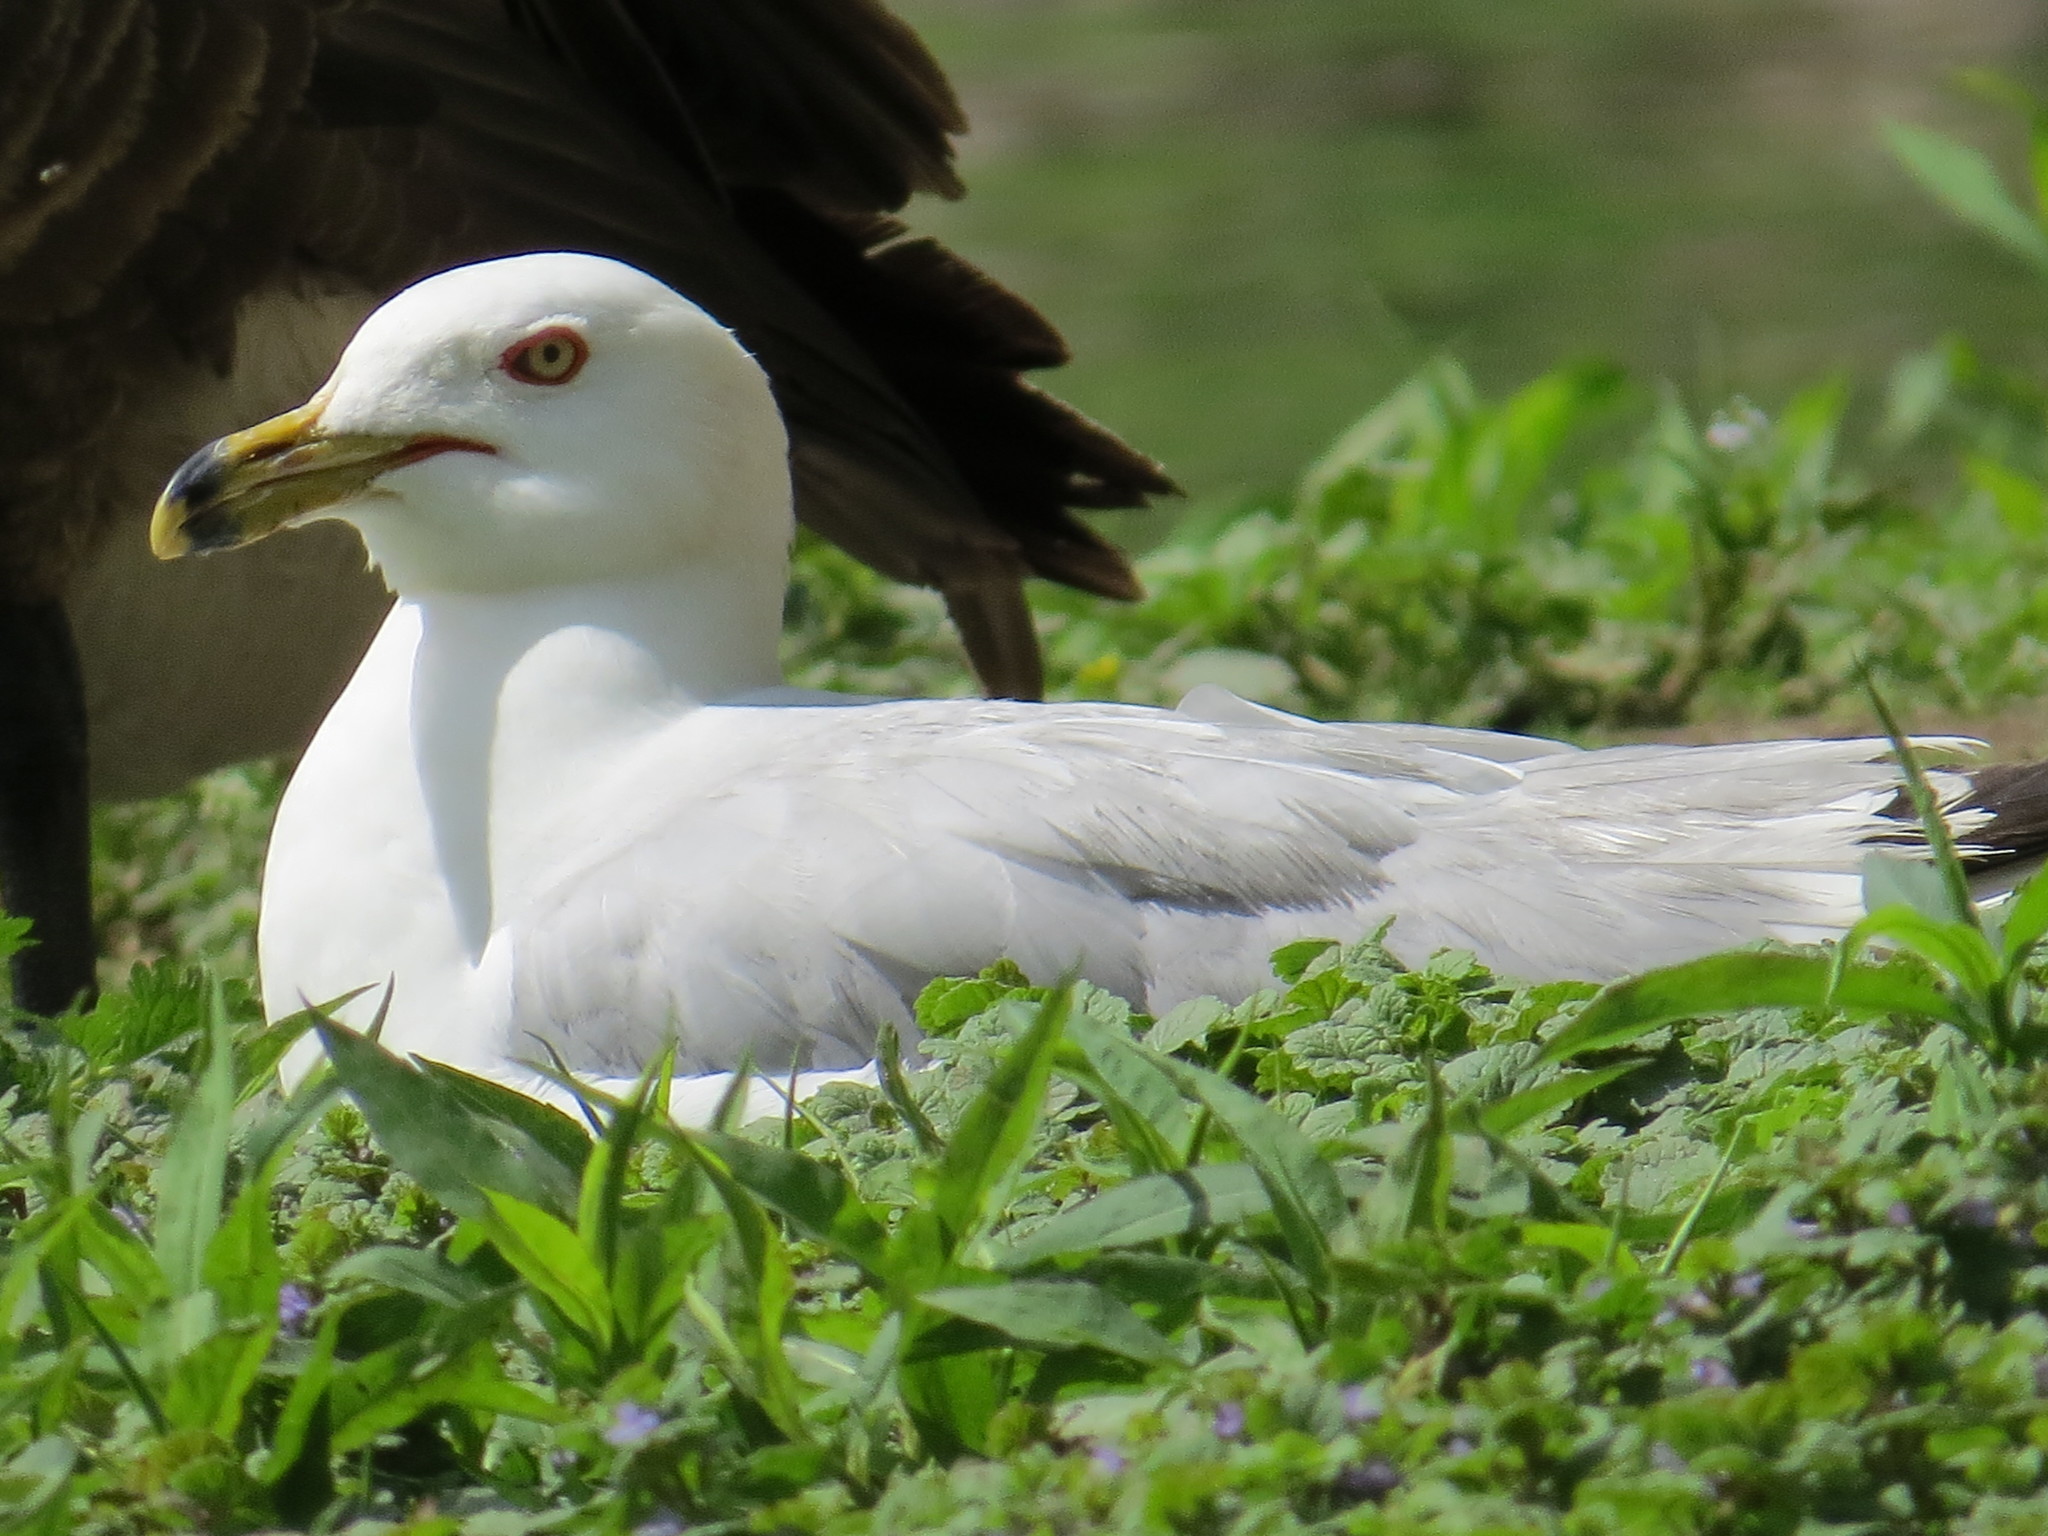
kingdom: Animalia
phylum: Chordata
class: Aves
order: Charadriiformes
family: Laridae
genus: Larus
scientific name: Larus delawarensis
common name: Ring-billed gull
